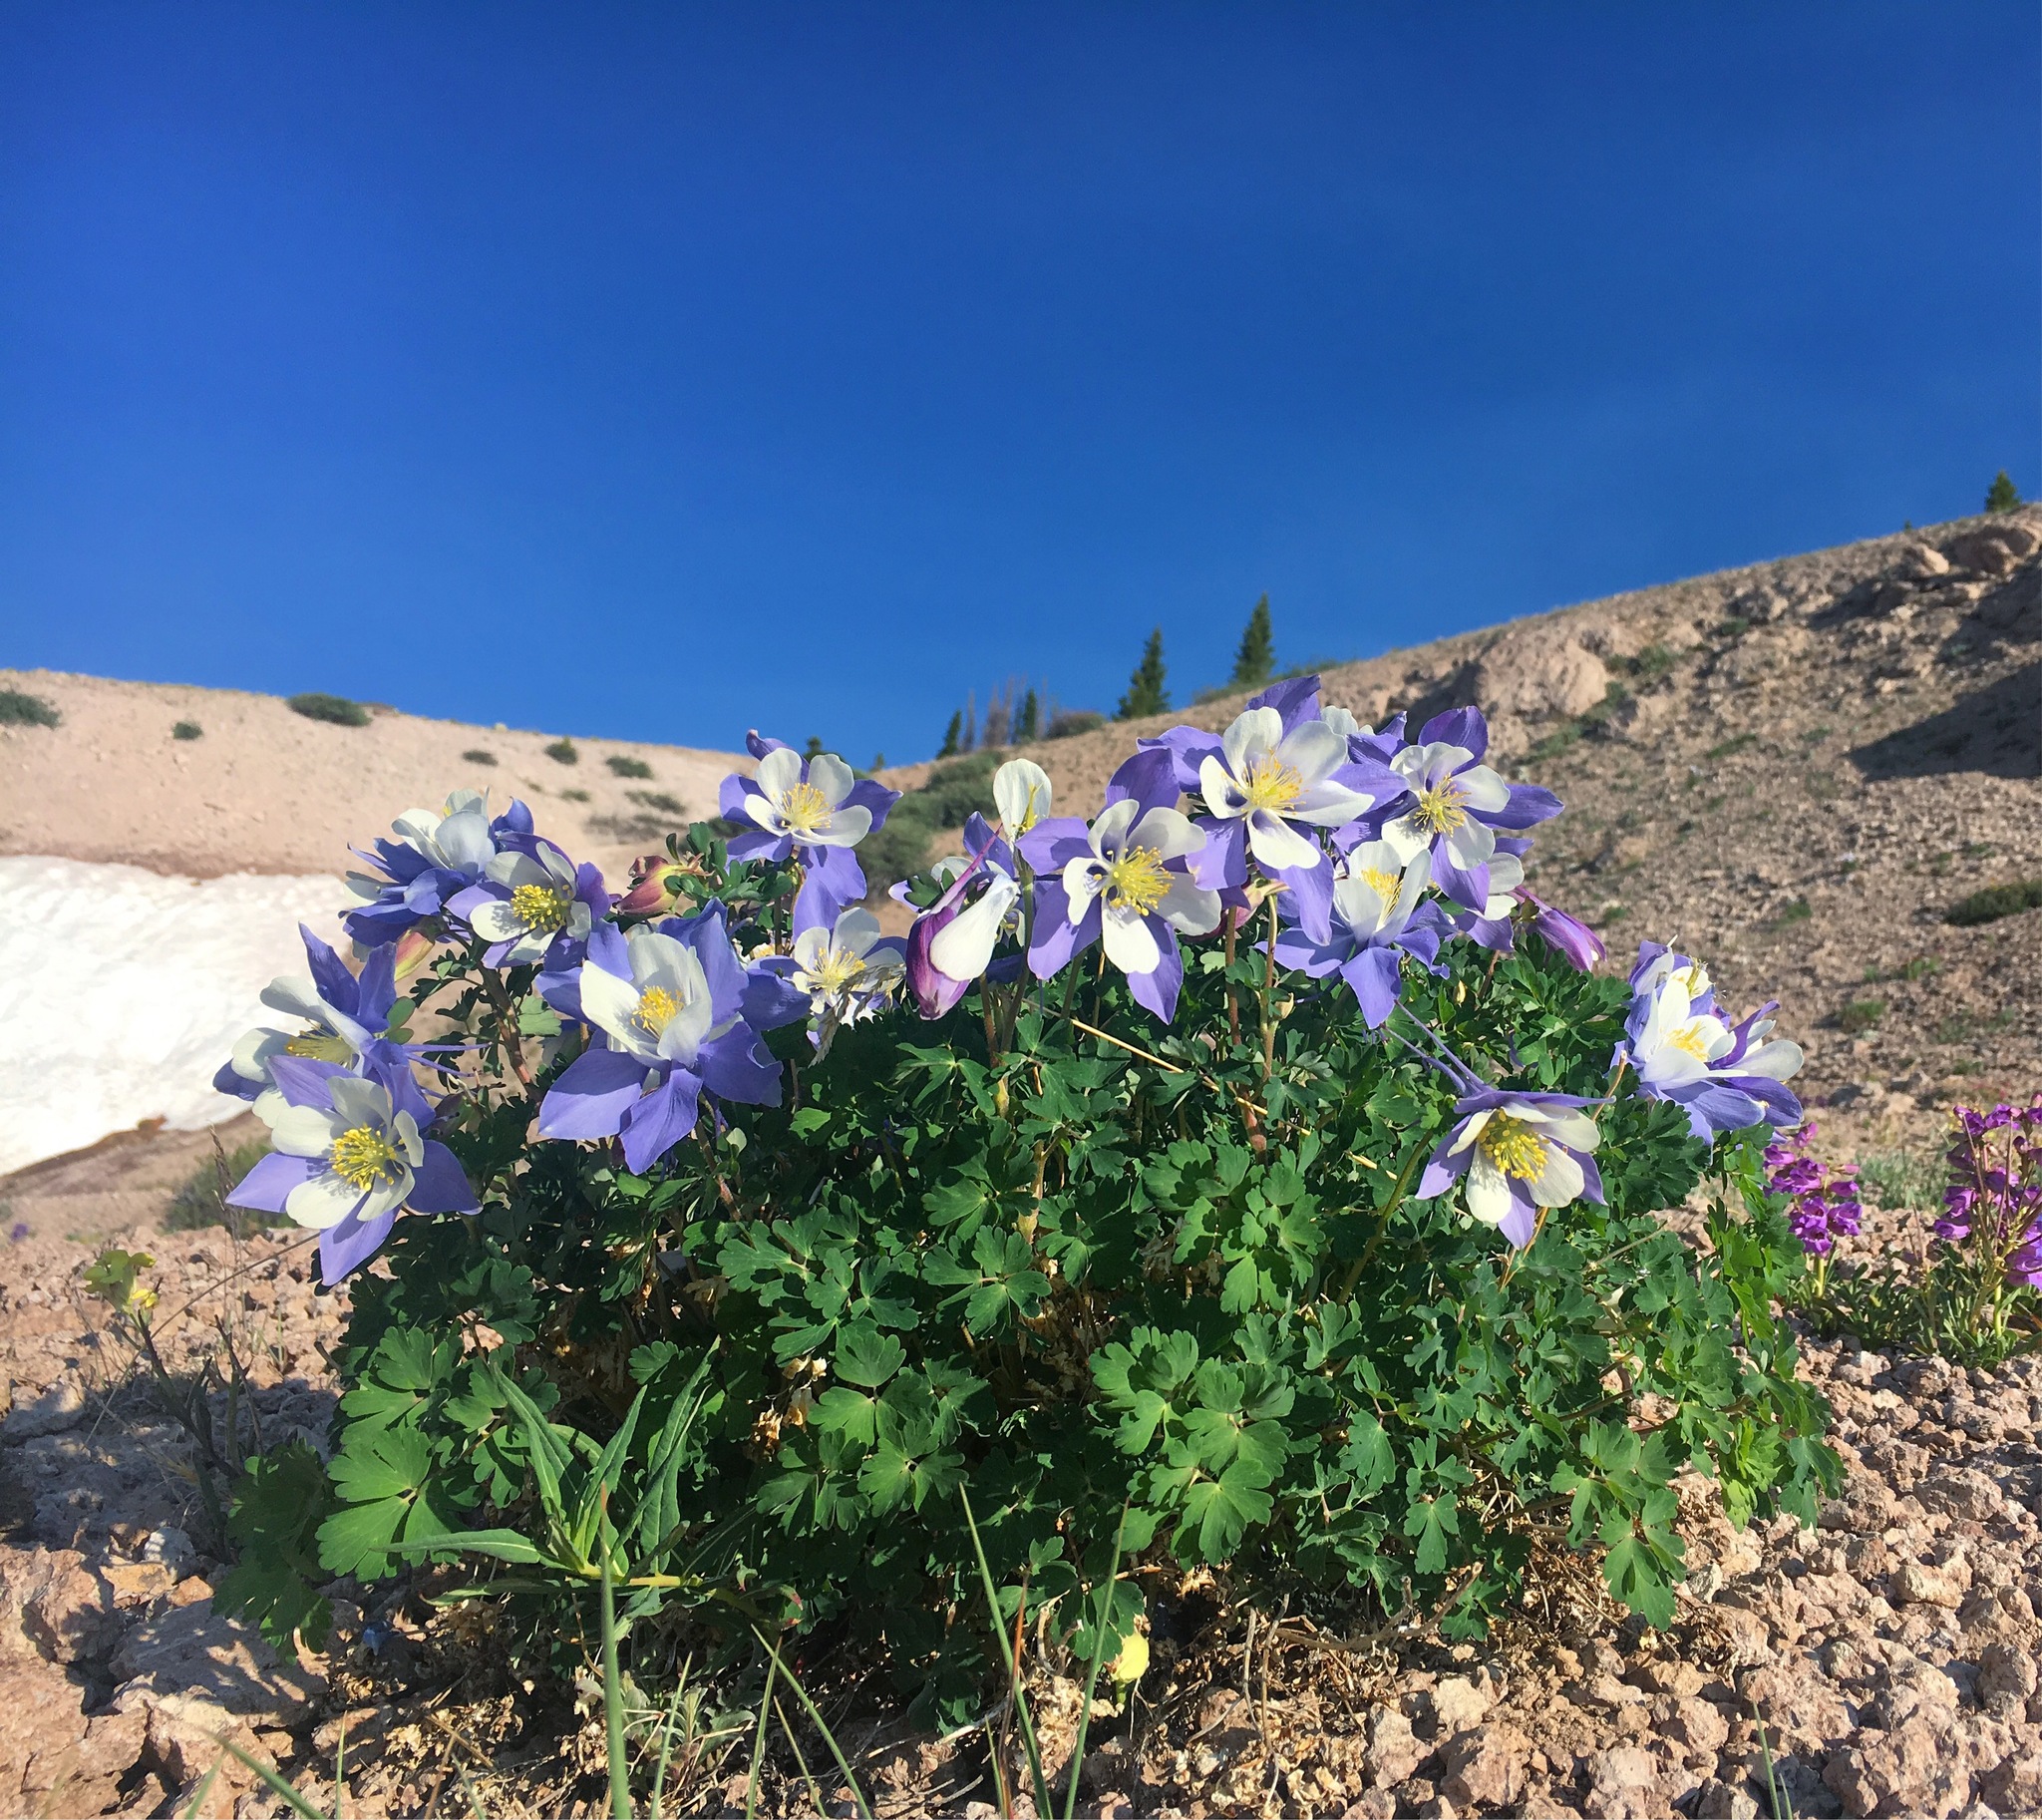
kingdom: Plantae
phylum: Tracheophyta
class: Magnoliopsida
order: Ranunculales
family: Ranunculaceae
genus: Aquilegia
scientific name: Aquilegia coerulea
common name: Rocky mountain columbine
